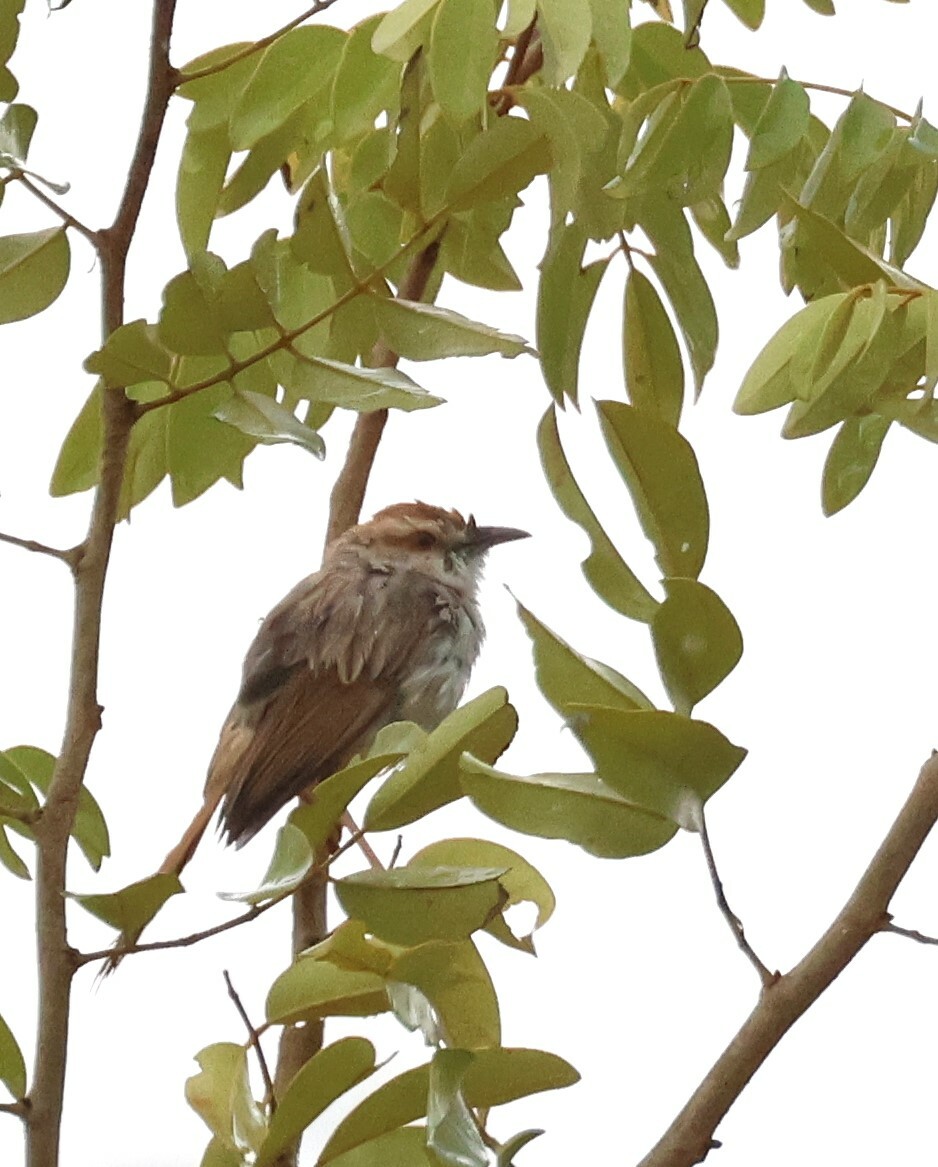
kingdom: Animalia
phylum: Chordata
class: Aves
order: Passeriformes
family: Cisticolidae
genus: Cisticola
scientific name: Cisticola rufilatus
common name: Tinkling cisticola
